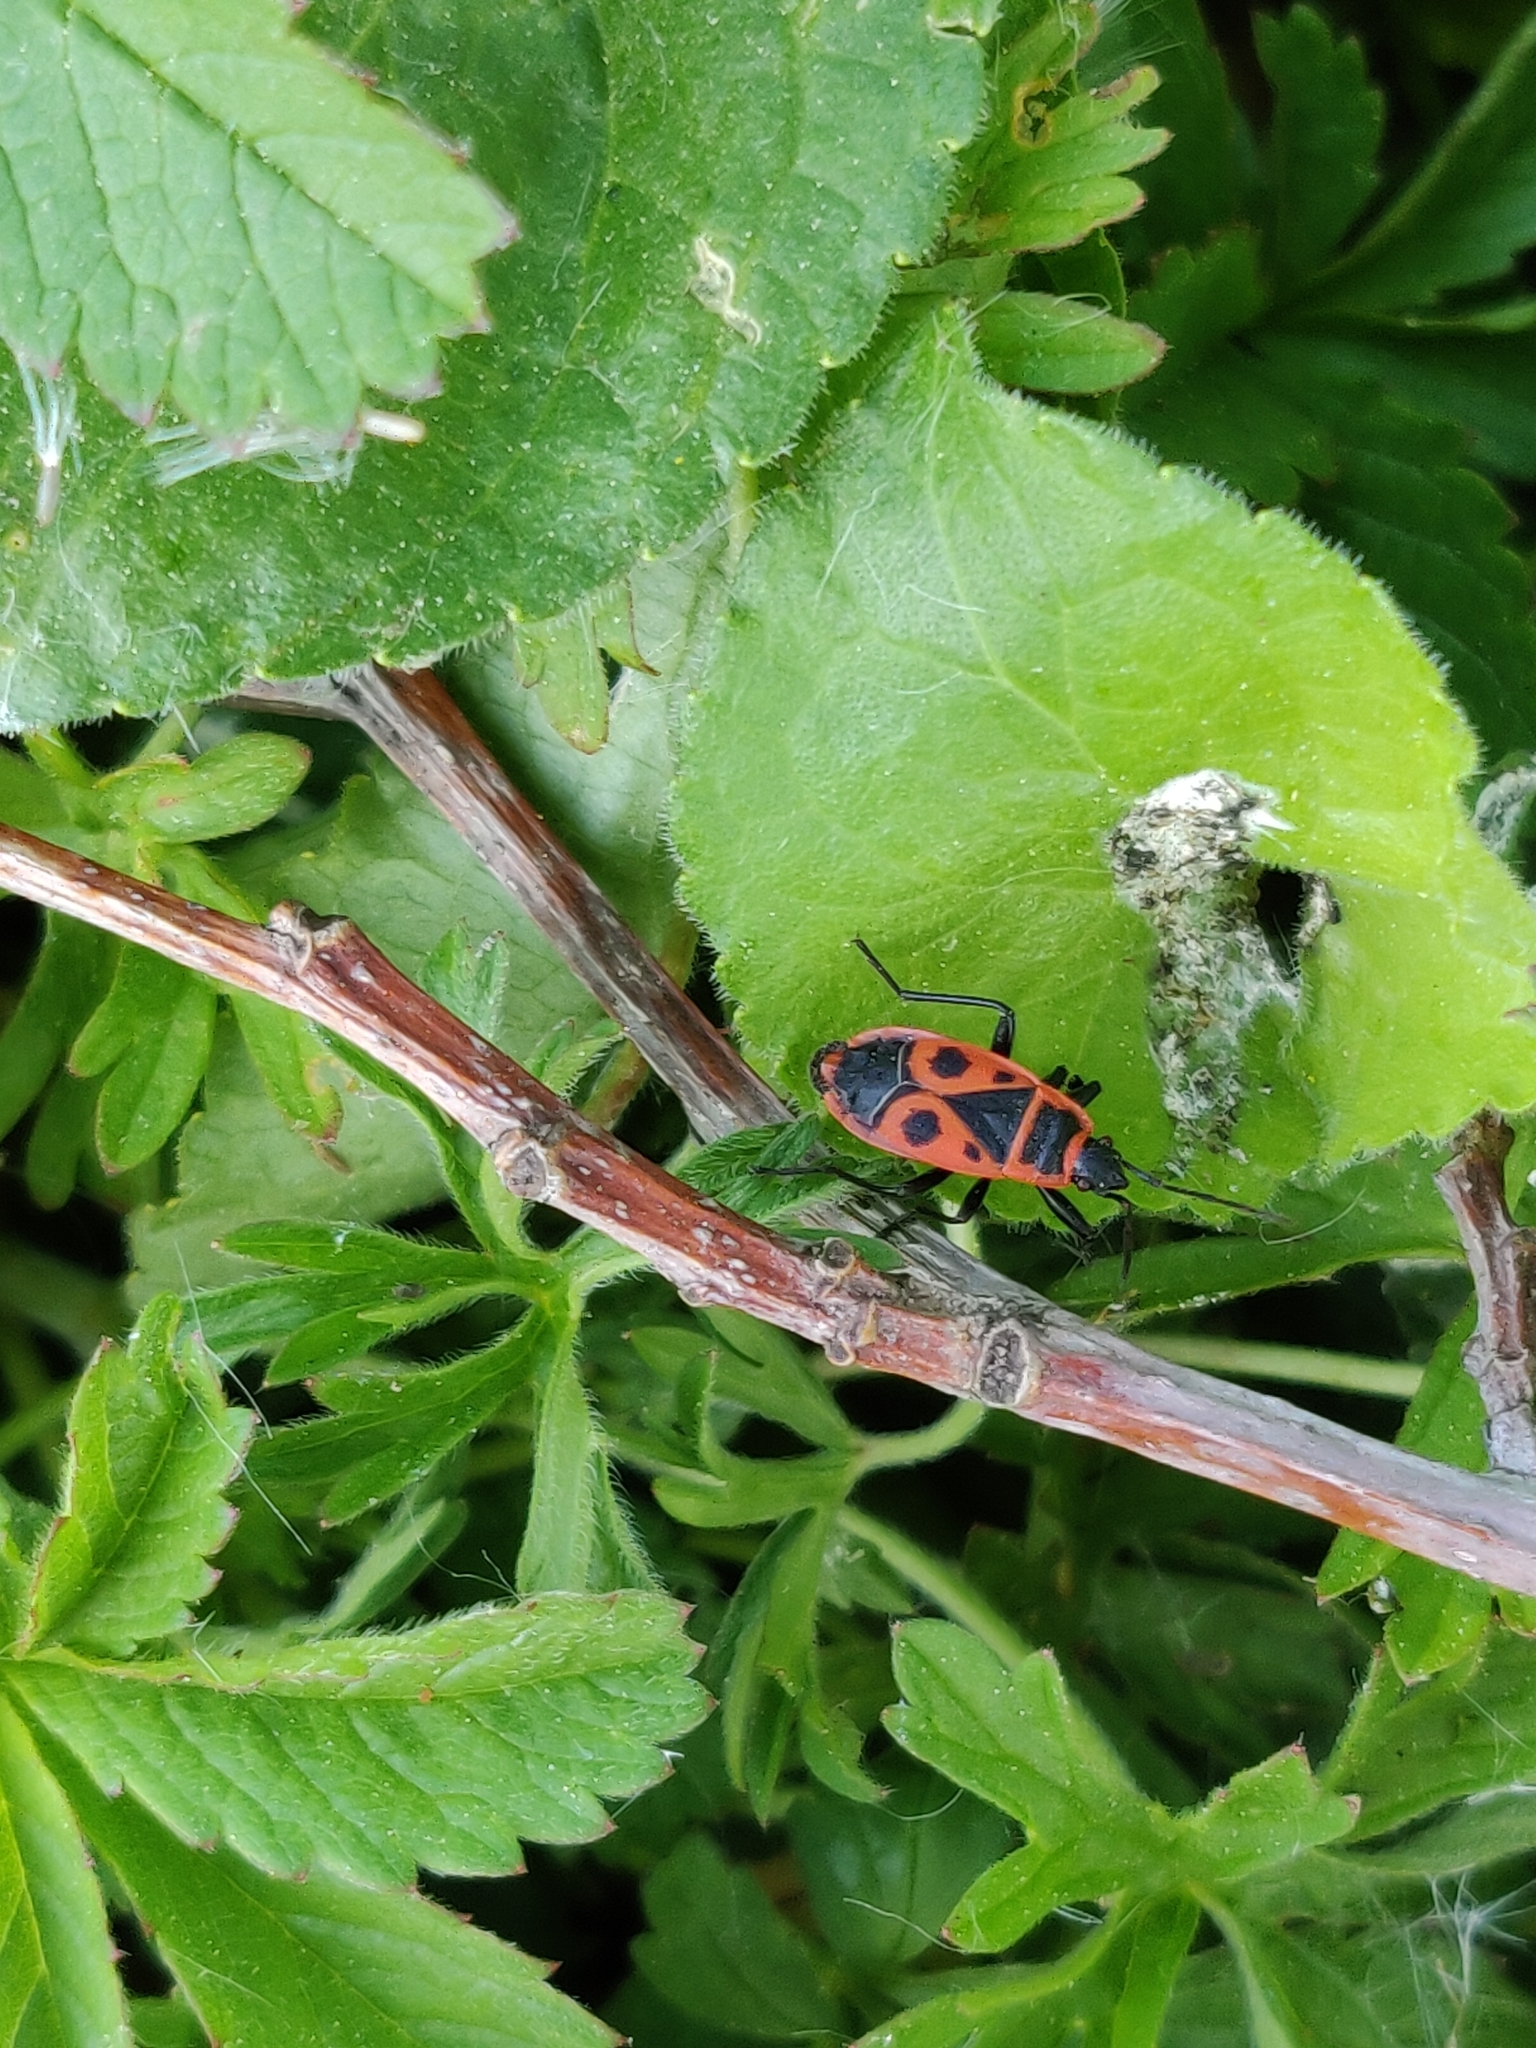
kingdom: Animalia
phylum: Arthropoda
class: Insecta
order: Hemiptera
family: Pyrrhocoridae
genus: Pyrrhocoris
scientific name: Pyrrhocoris apterus
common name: Firebug
